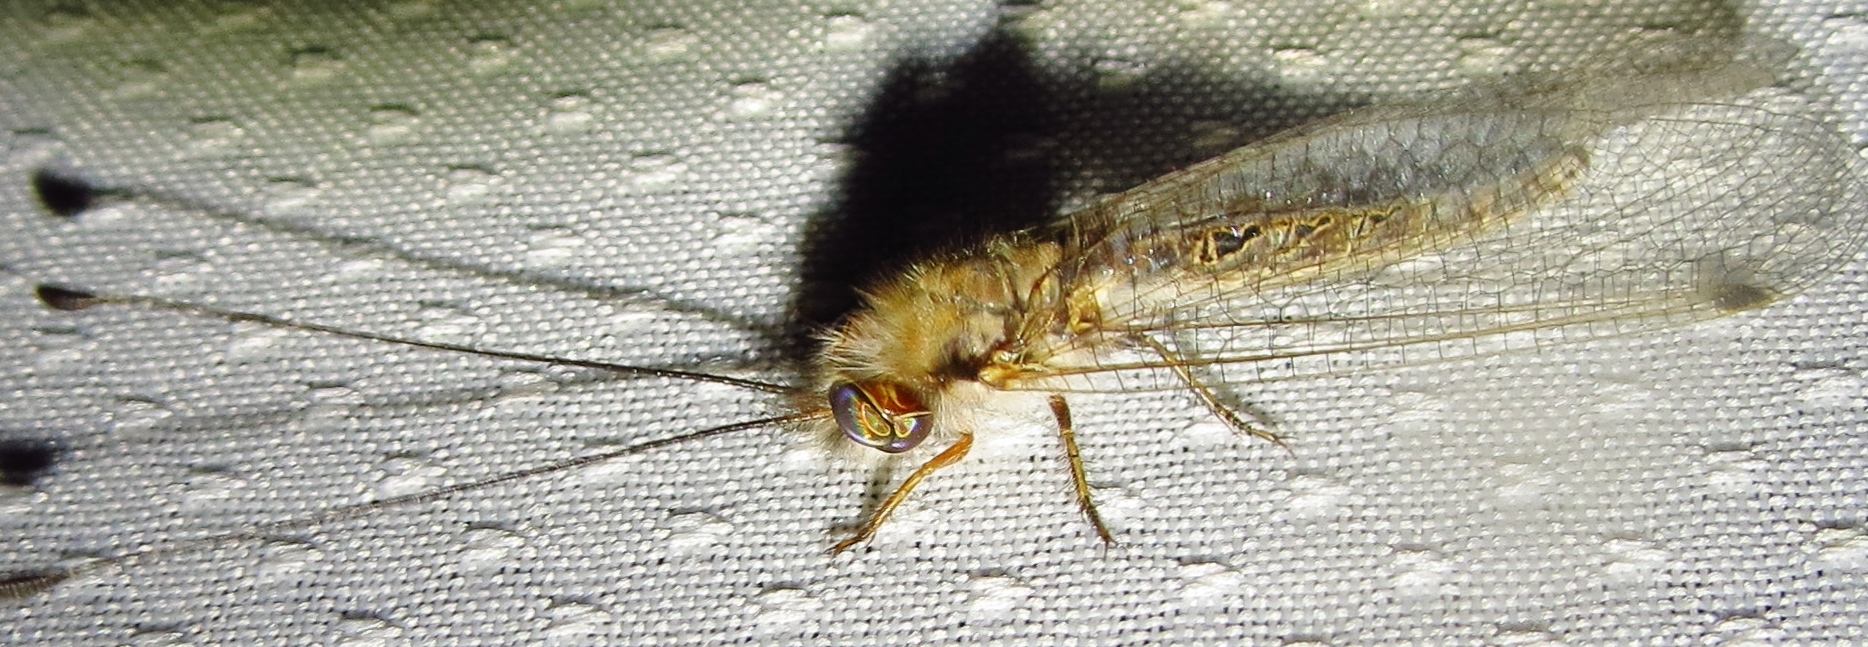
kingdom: Animalia
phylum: Arthropoda
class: Insecta
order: Neuroptera
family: Ascalaphidae
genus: Ululodes
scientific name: Ululodes macleayanus
